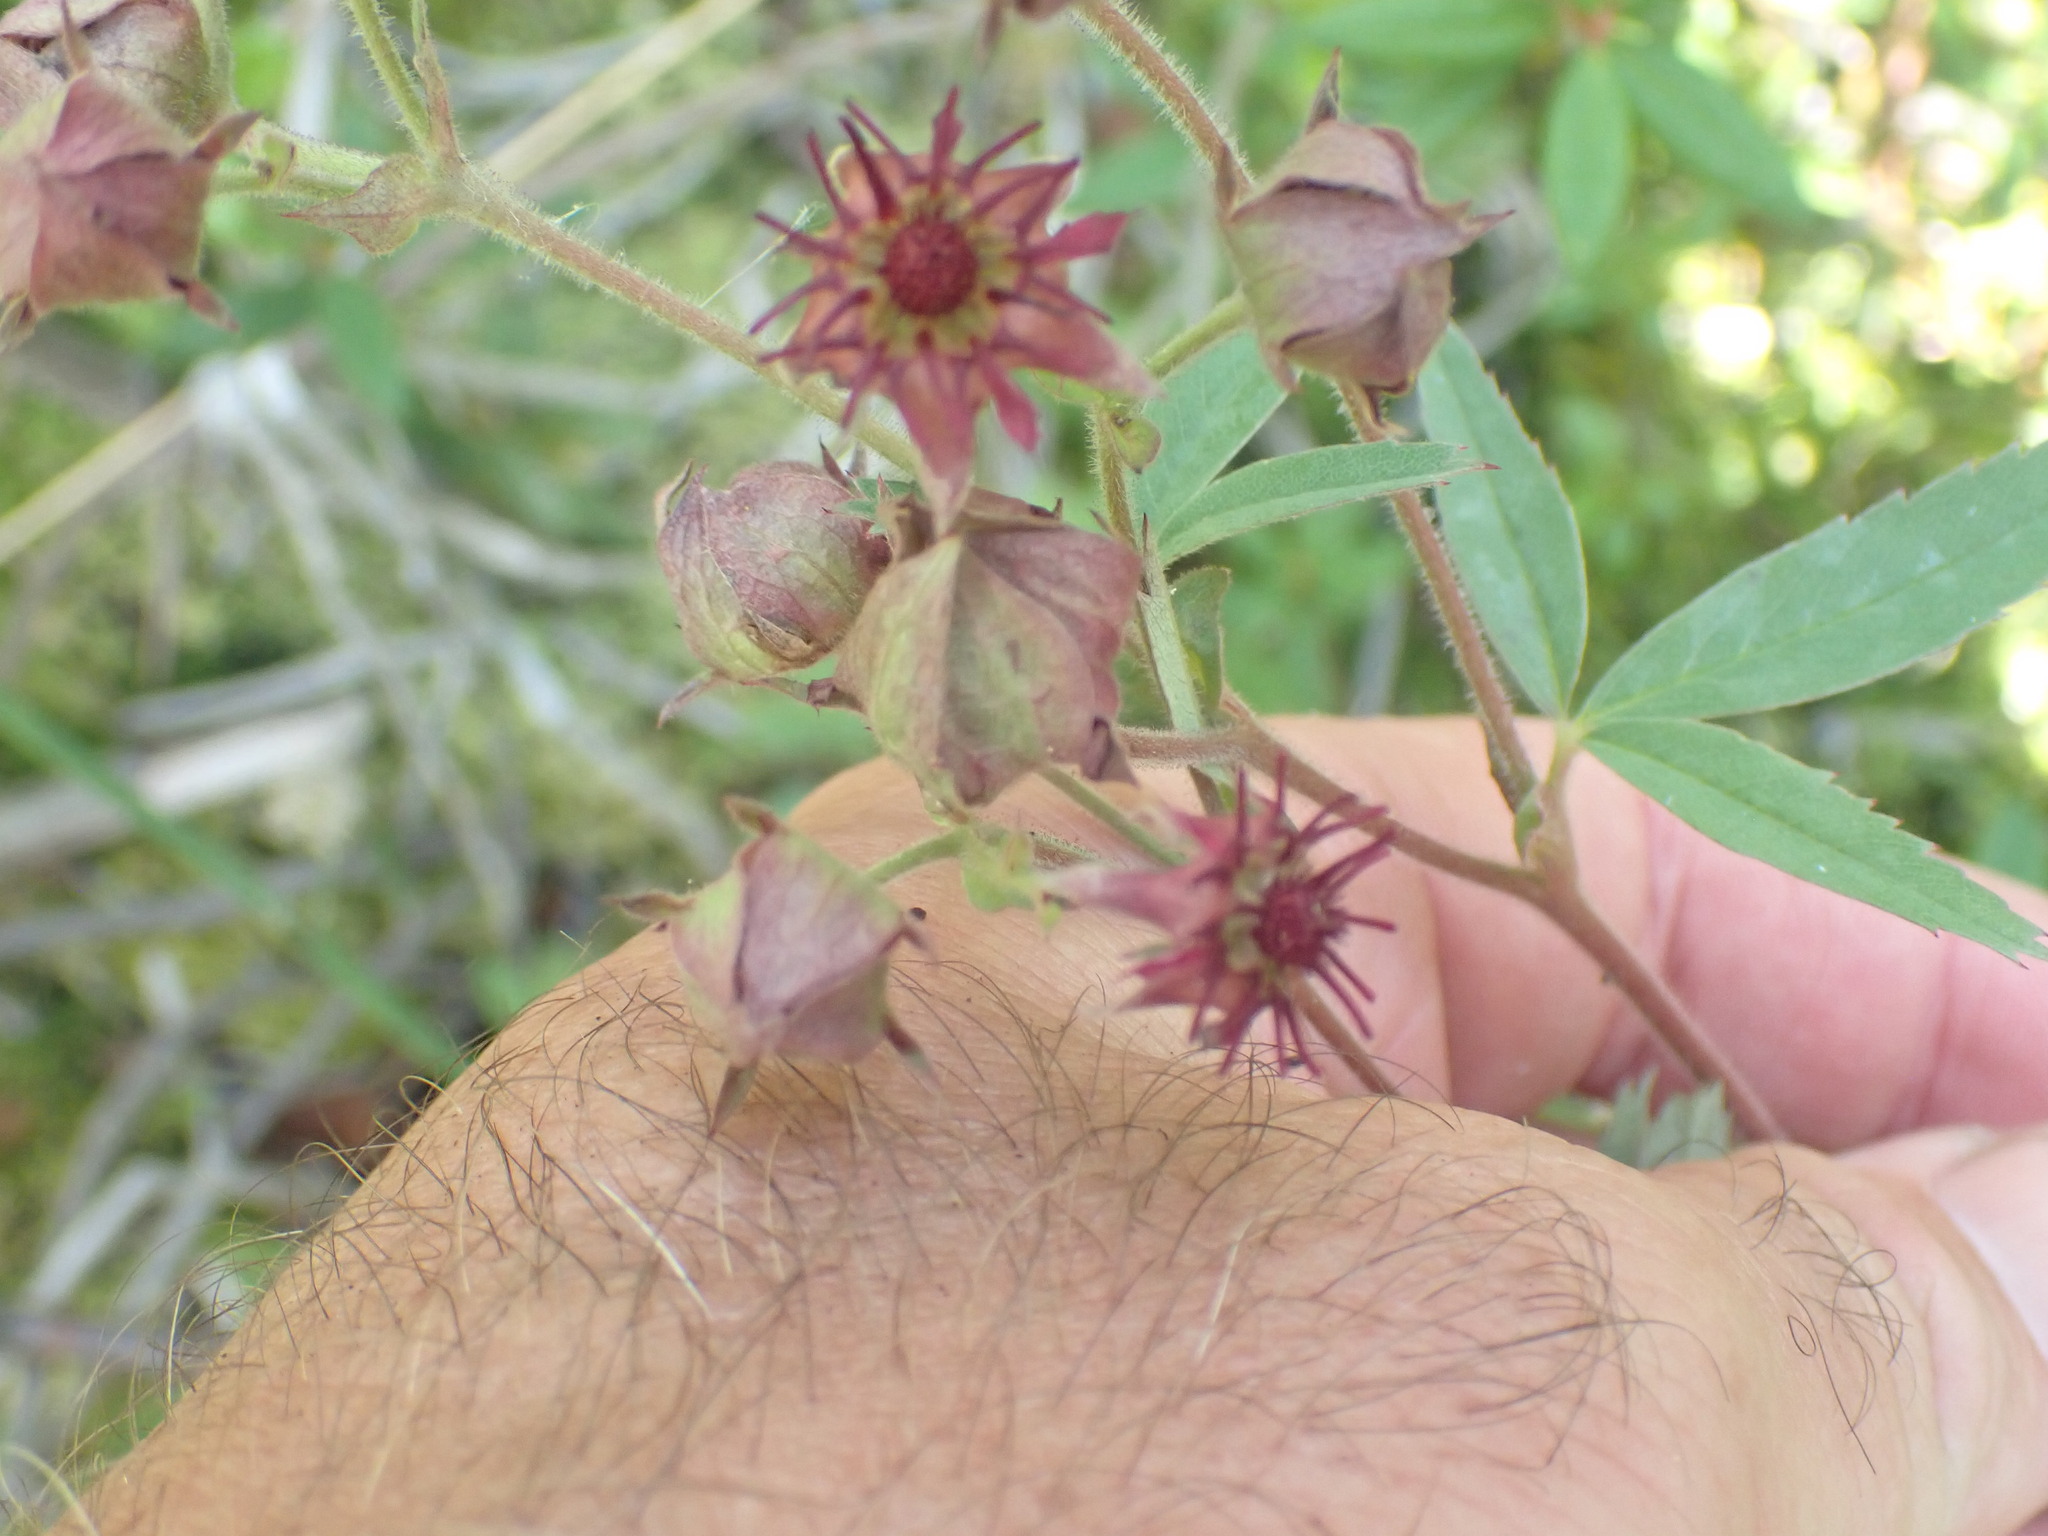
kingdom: Plantae
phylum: Tracheophyta
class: Magnoliopsida
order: Rosales
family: Rosaceae
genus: Comarum
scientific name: Comarum palustre
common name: Marsh cinquefoil
